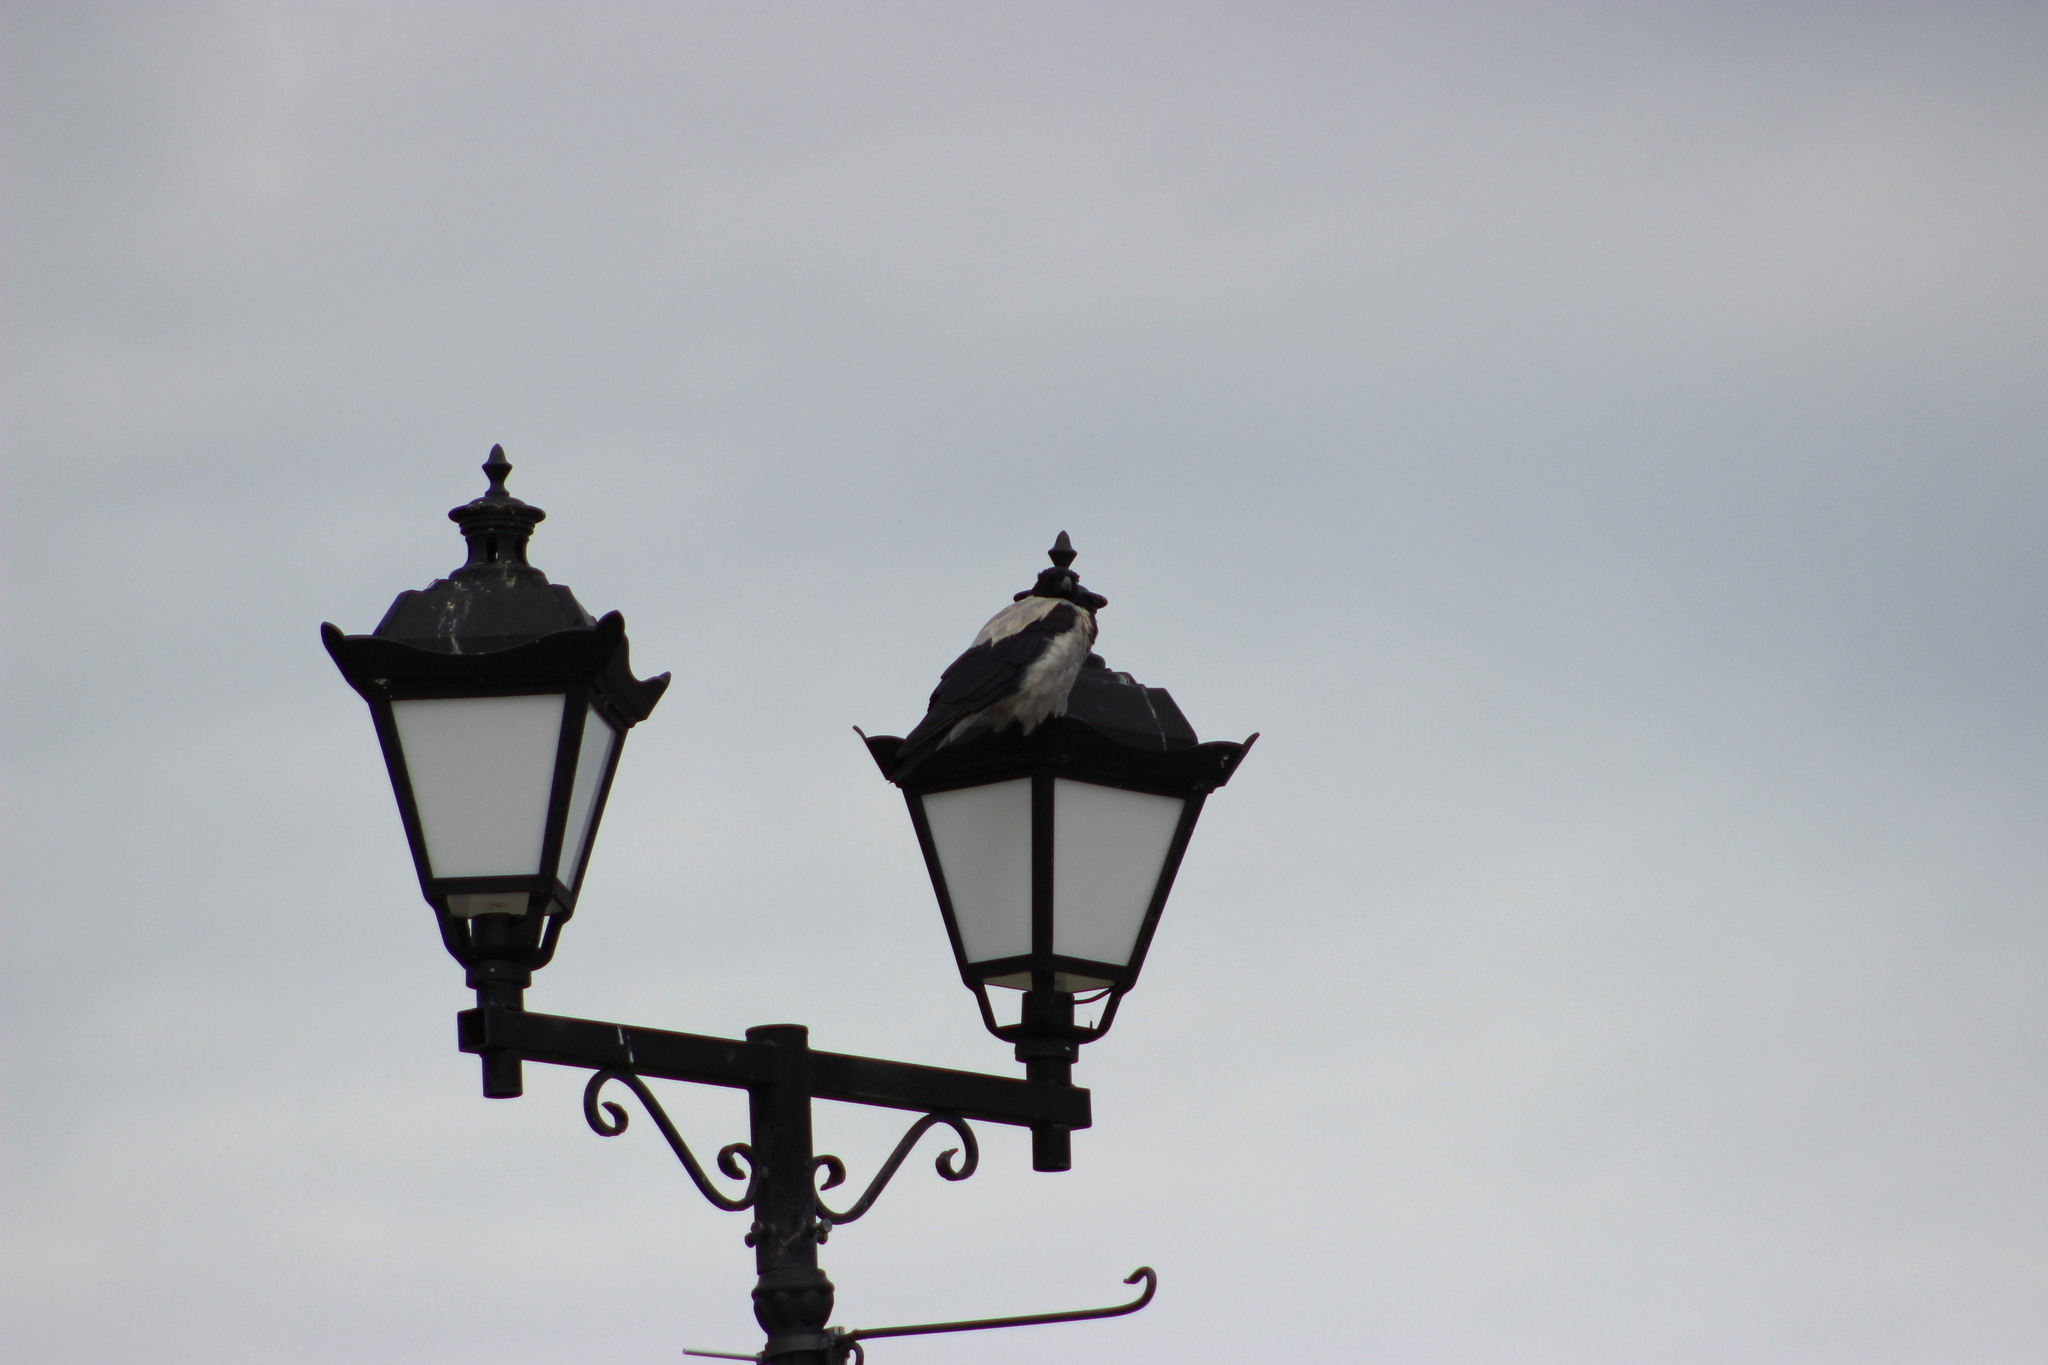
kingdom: Animalia
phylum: Chordata
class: Aves
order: Passeriformes
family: Corvidae
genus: Corvus
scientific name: Corvus cornix
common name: Hooded crow
